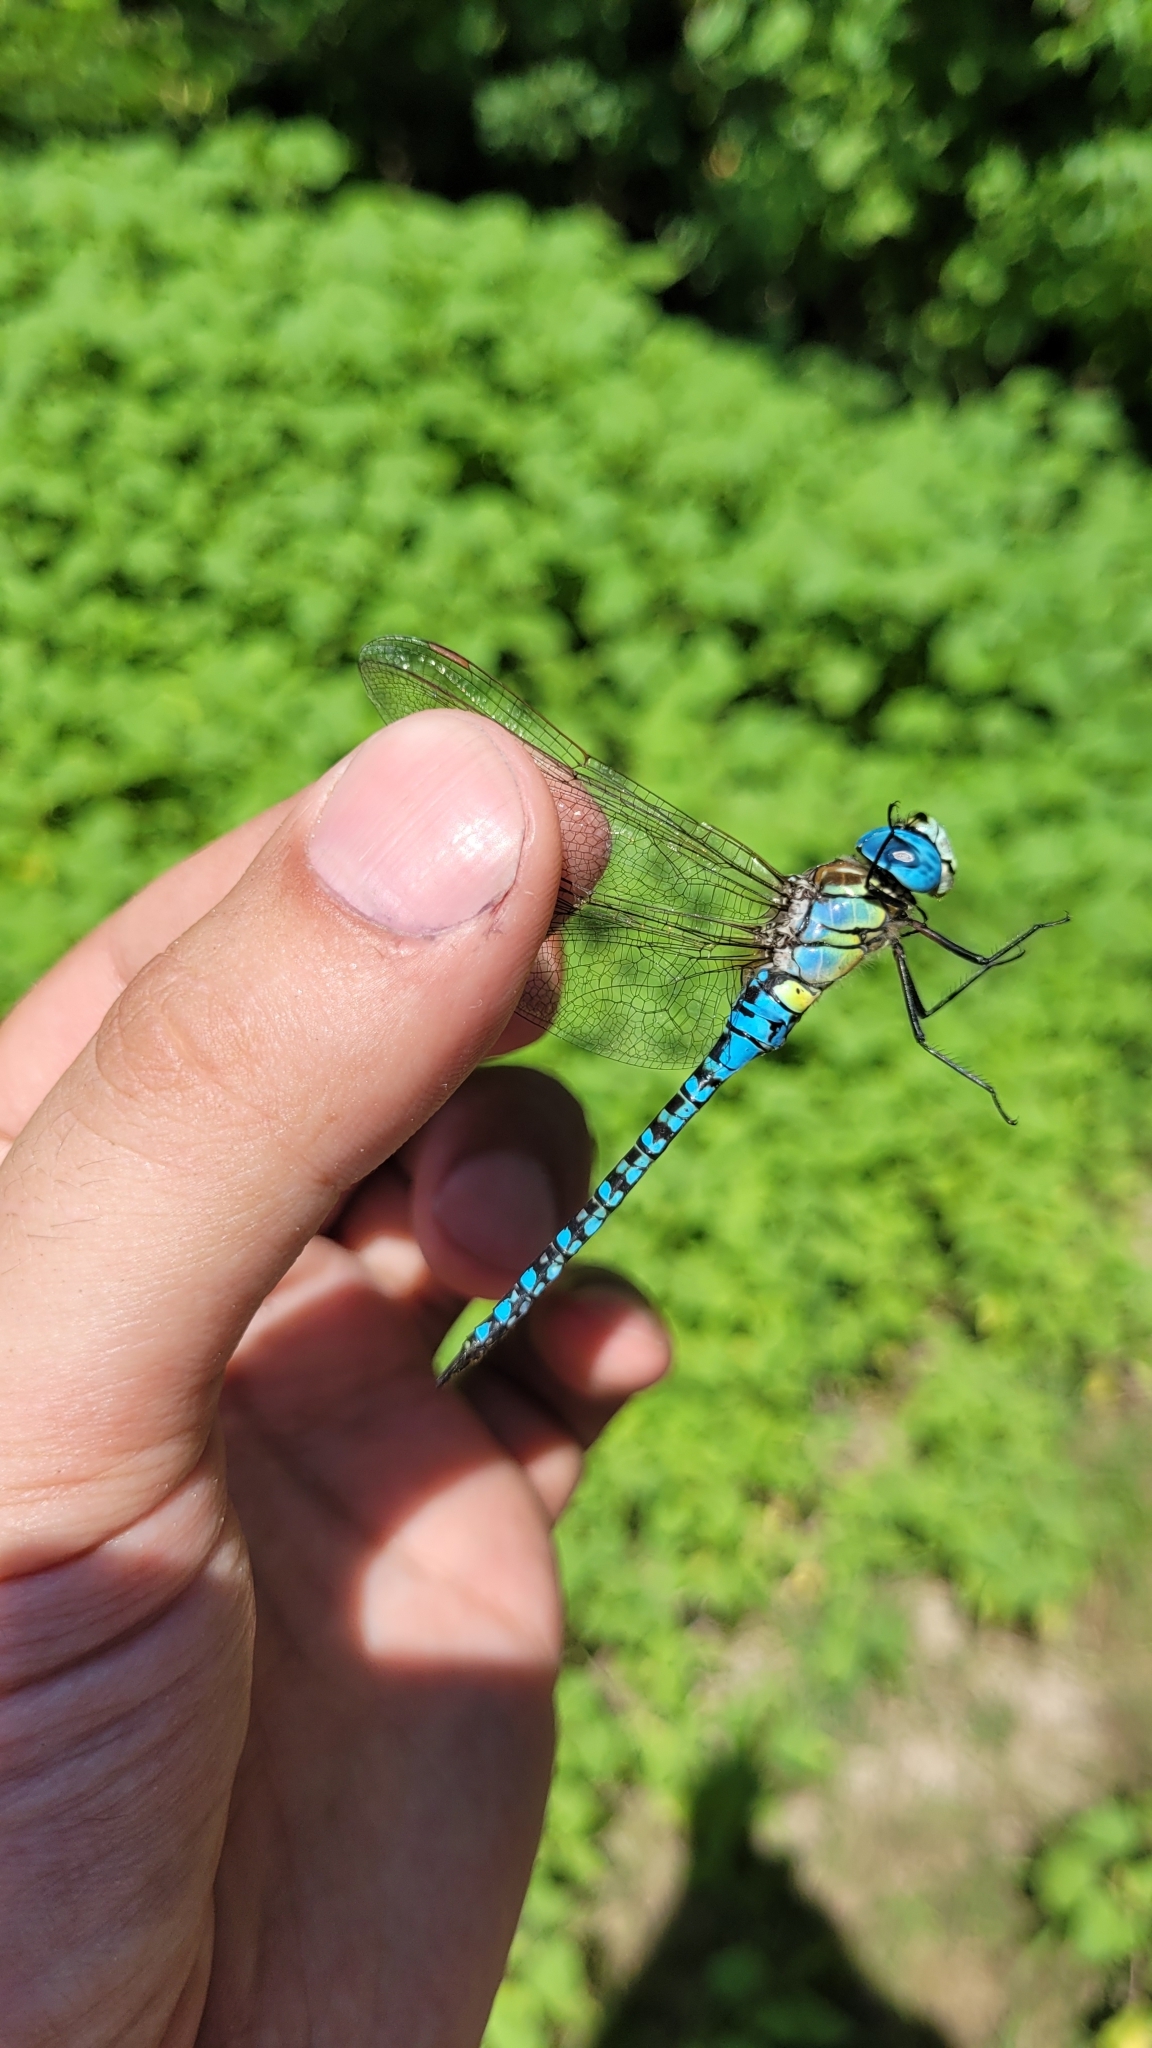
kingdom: Animalia
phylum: Arthropoda
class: Insecta
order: Odonata
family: Aeshnidae
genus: Aeshna
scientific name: Aeshna affinis
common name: Southern migrant hawker
